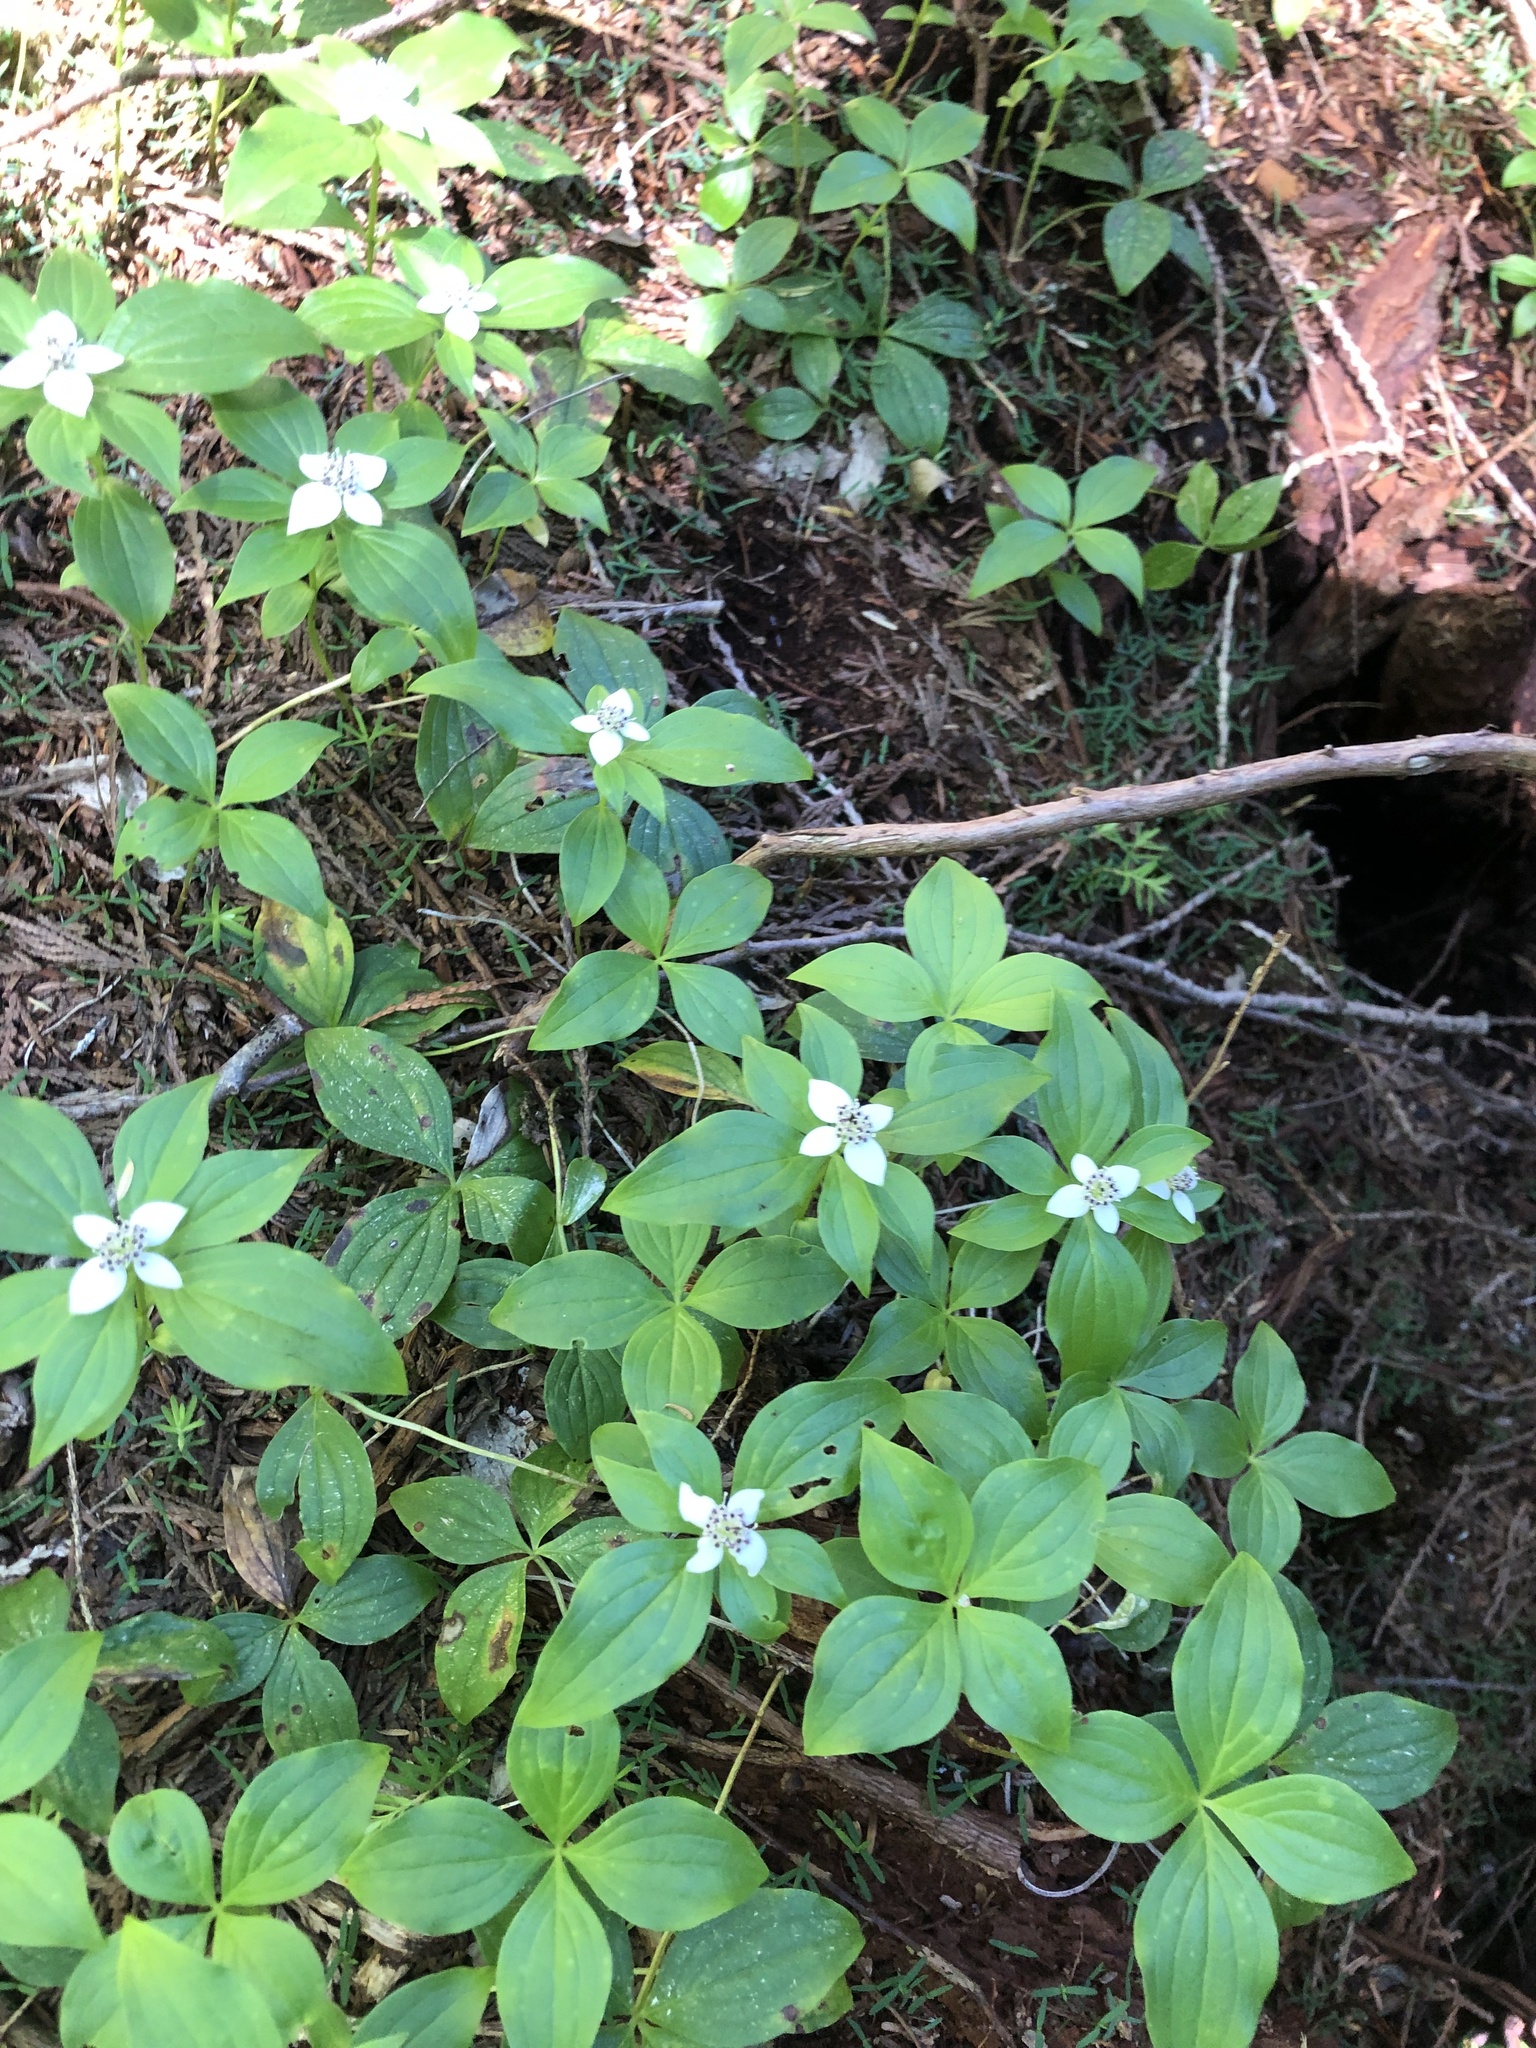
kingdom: Plantae
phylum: Tracheophyta
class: Magnoliopsida
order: Cornales
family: Cornaceae
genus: Cornus
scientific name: Cornus unalaschkensis
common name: Alaska bunchberry
